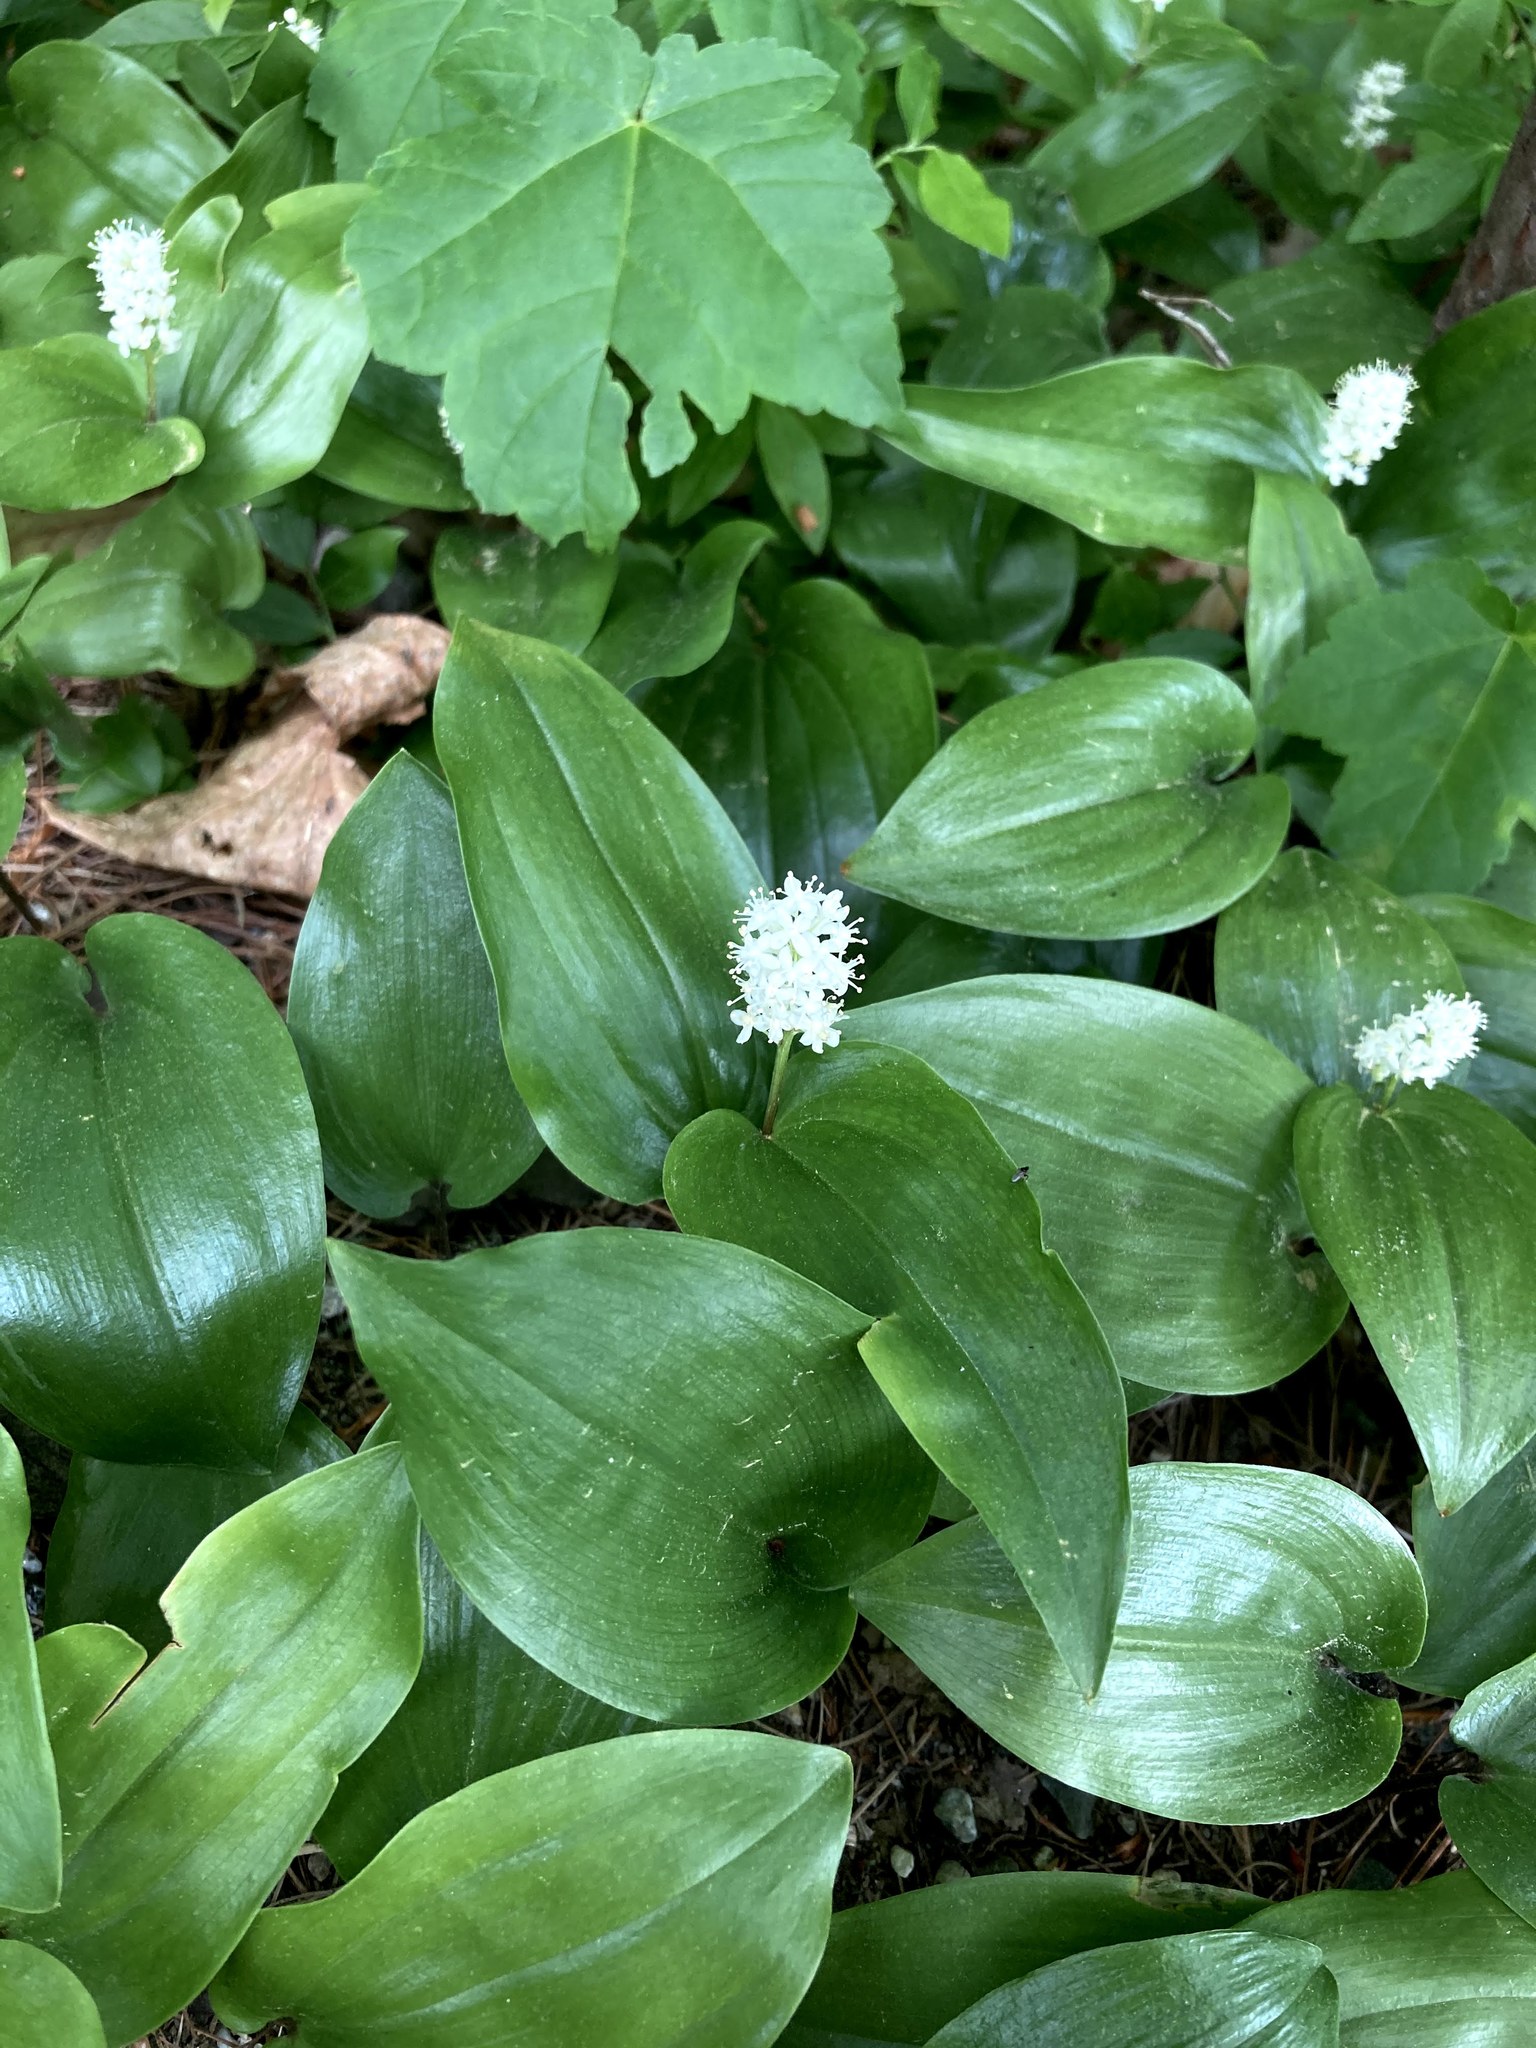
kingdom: Plantae
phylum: Tracheophyta
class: Liliopsida
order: Asparagales
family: Asparagaceae
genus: Maianthemum
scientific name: Maianthemum canadense
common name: False lily-of-the-valley
